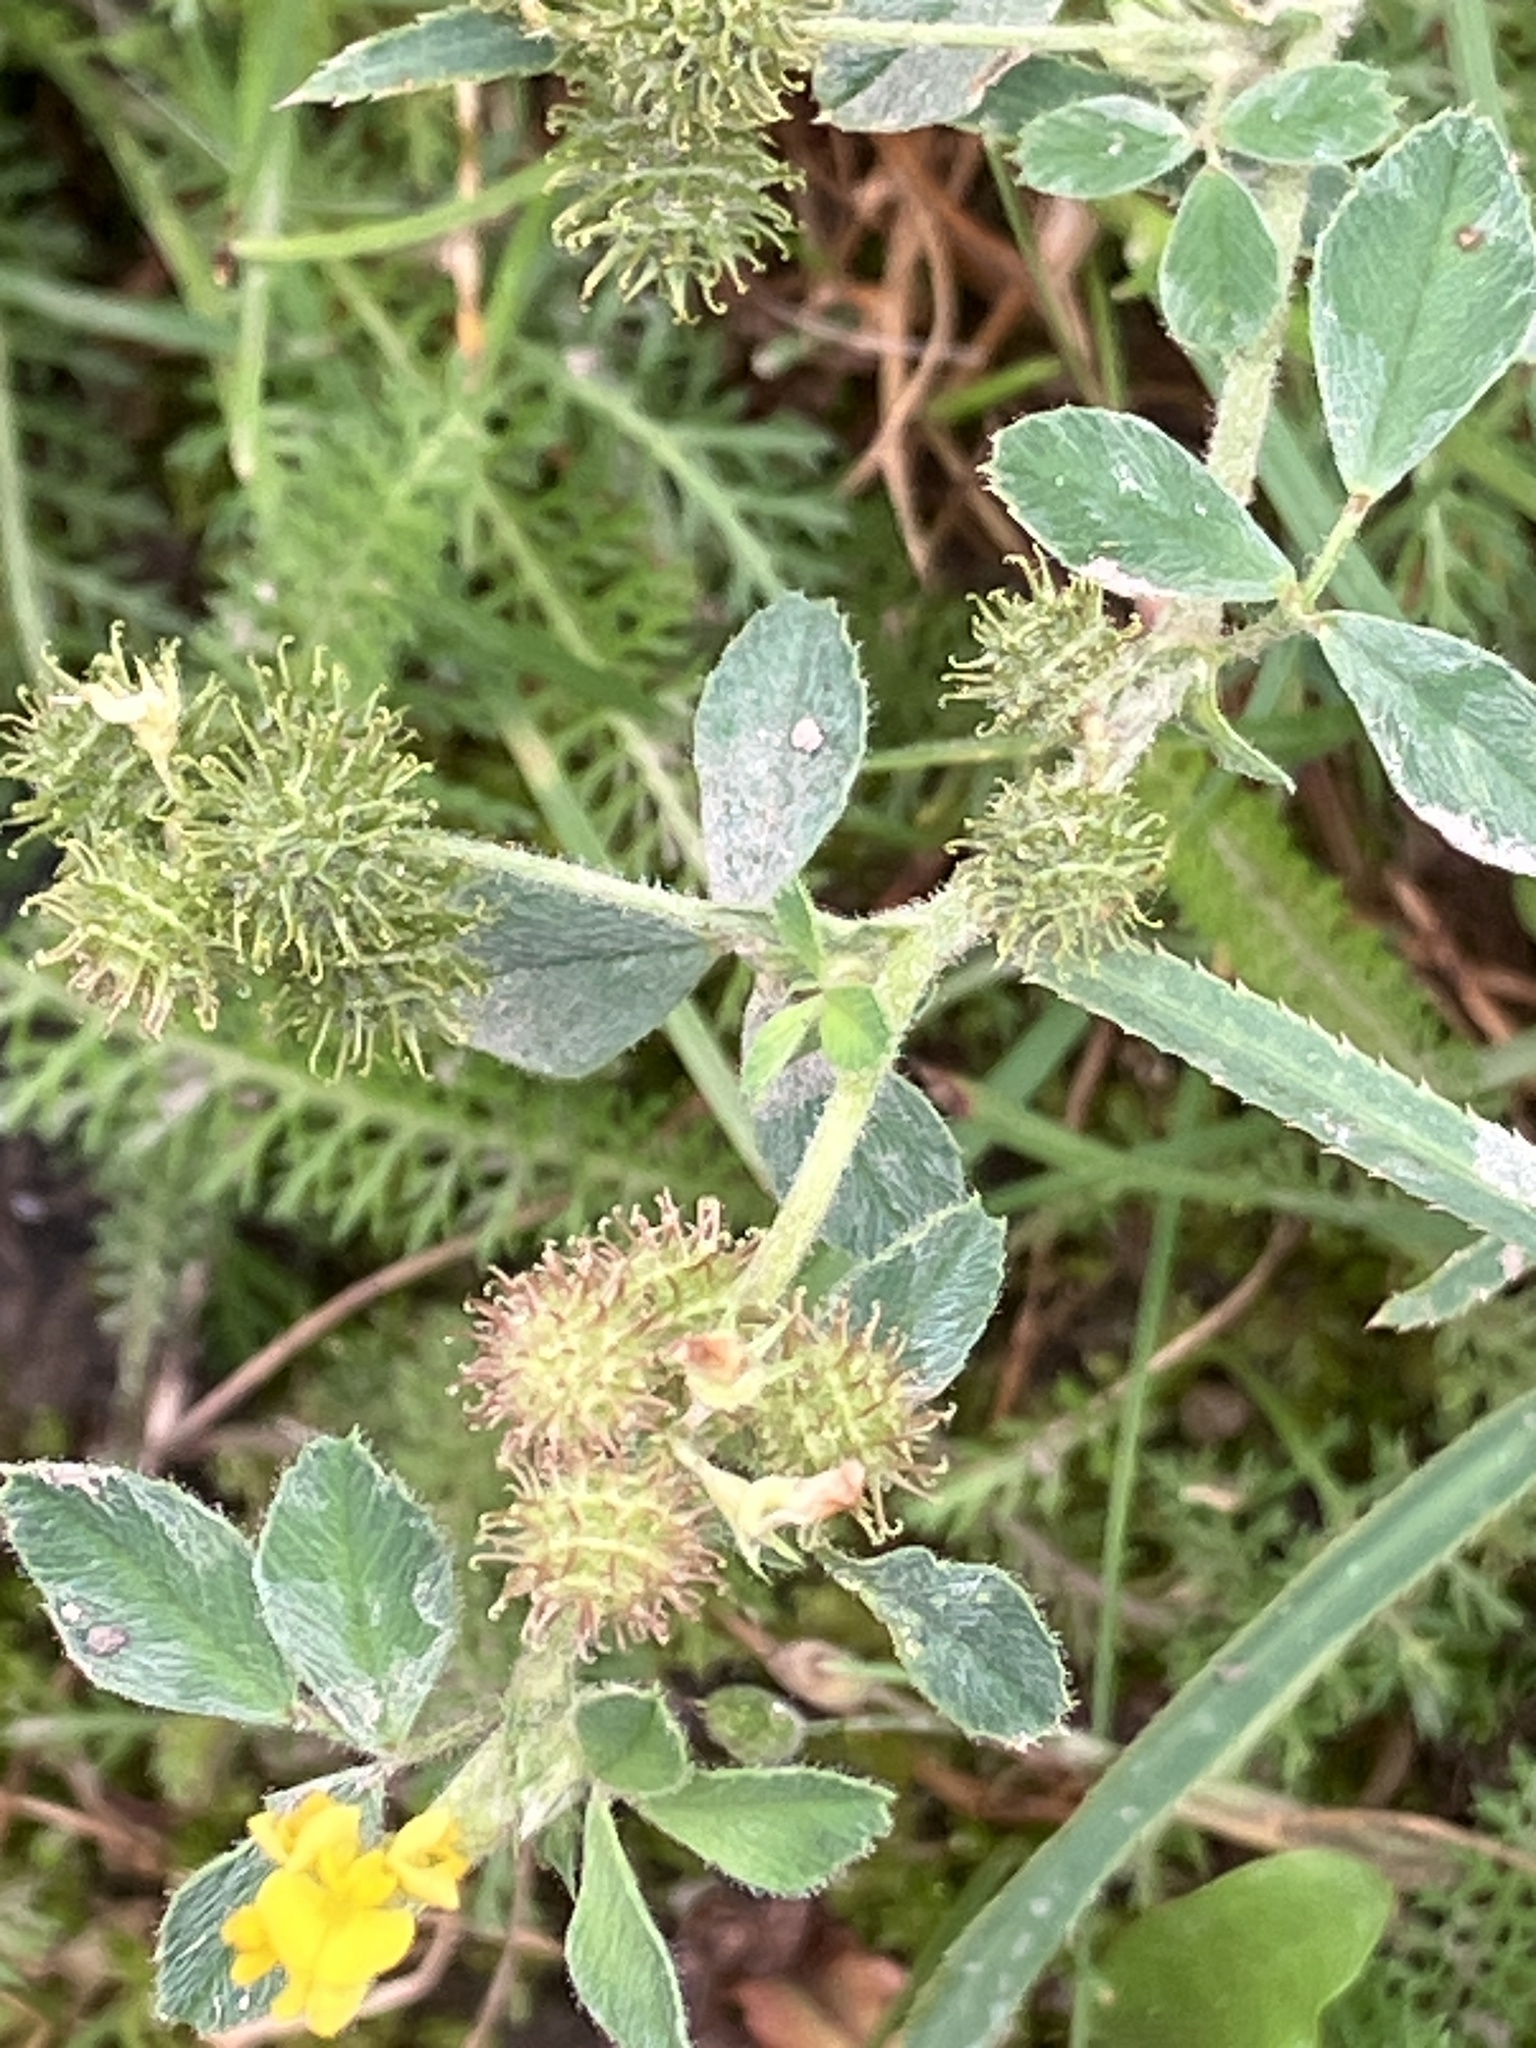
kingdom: Plantae
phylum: Tracheophyta
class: Magnoliopsida
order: Fabales
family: Fabaceae
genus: Medicago
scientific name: Medicago minima
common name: Little bur-clover
